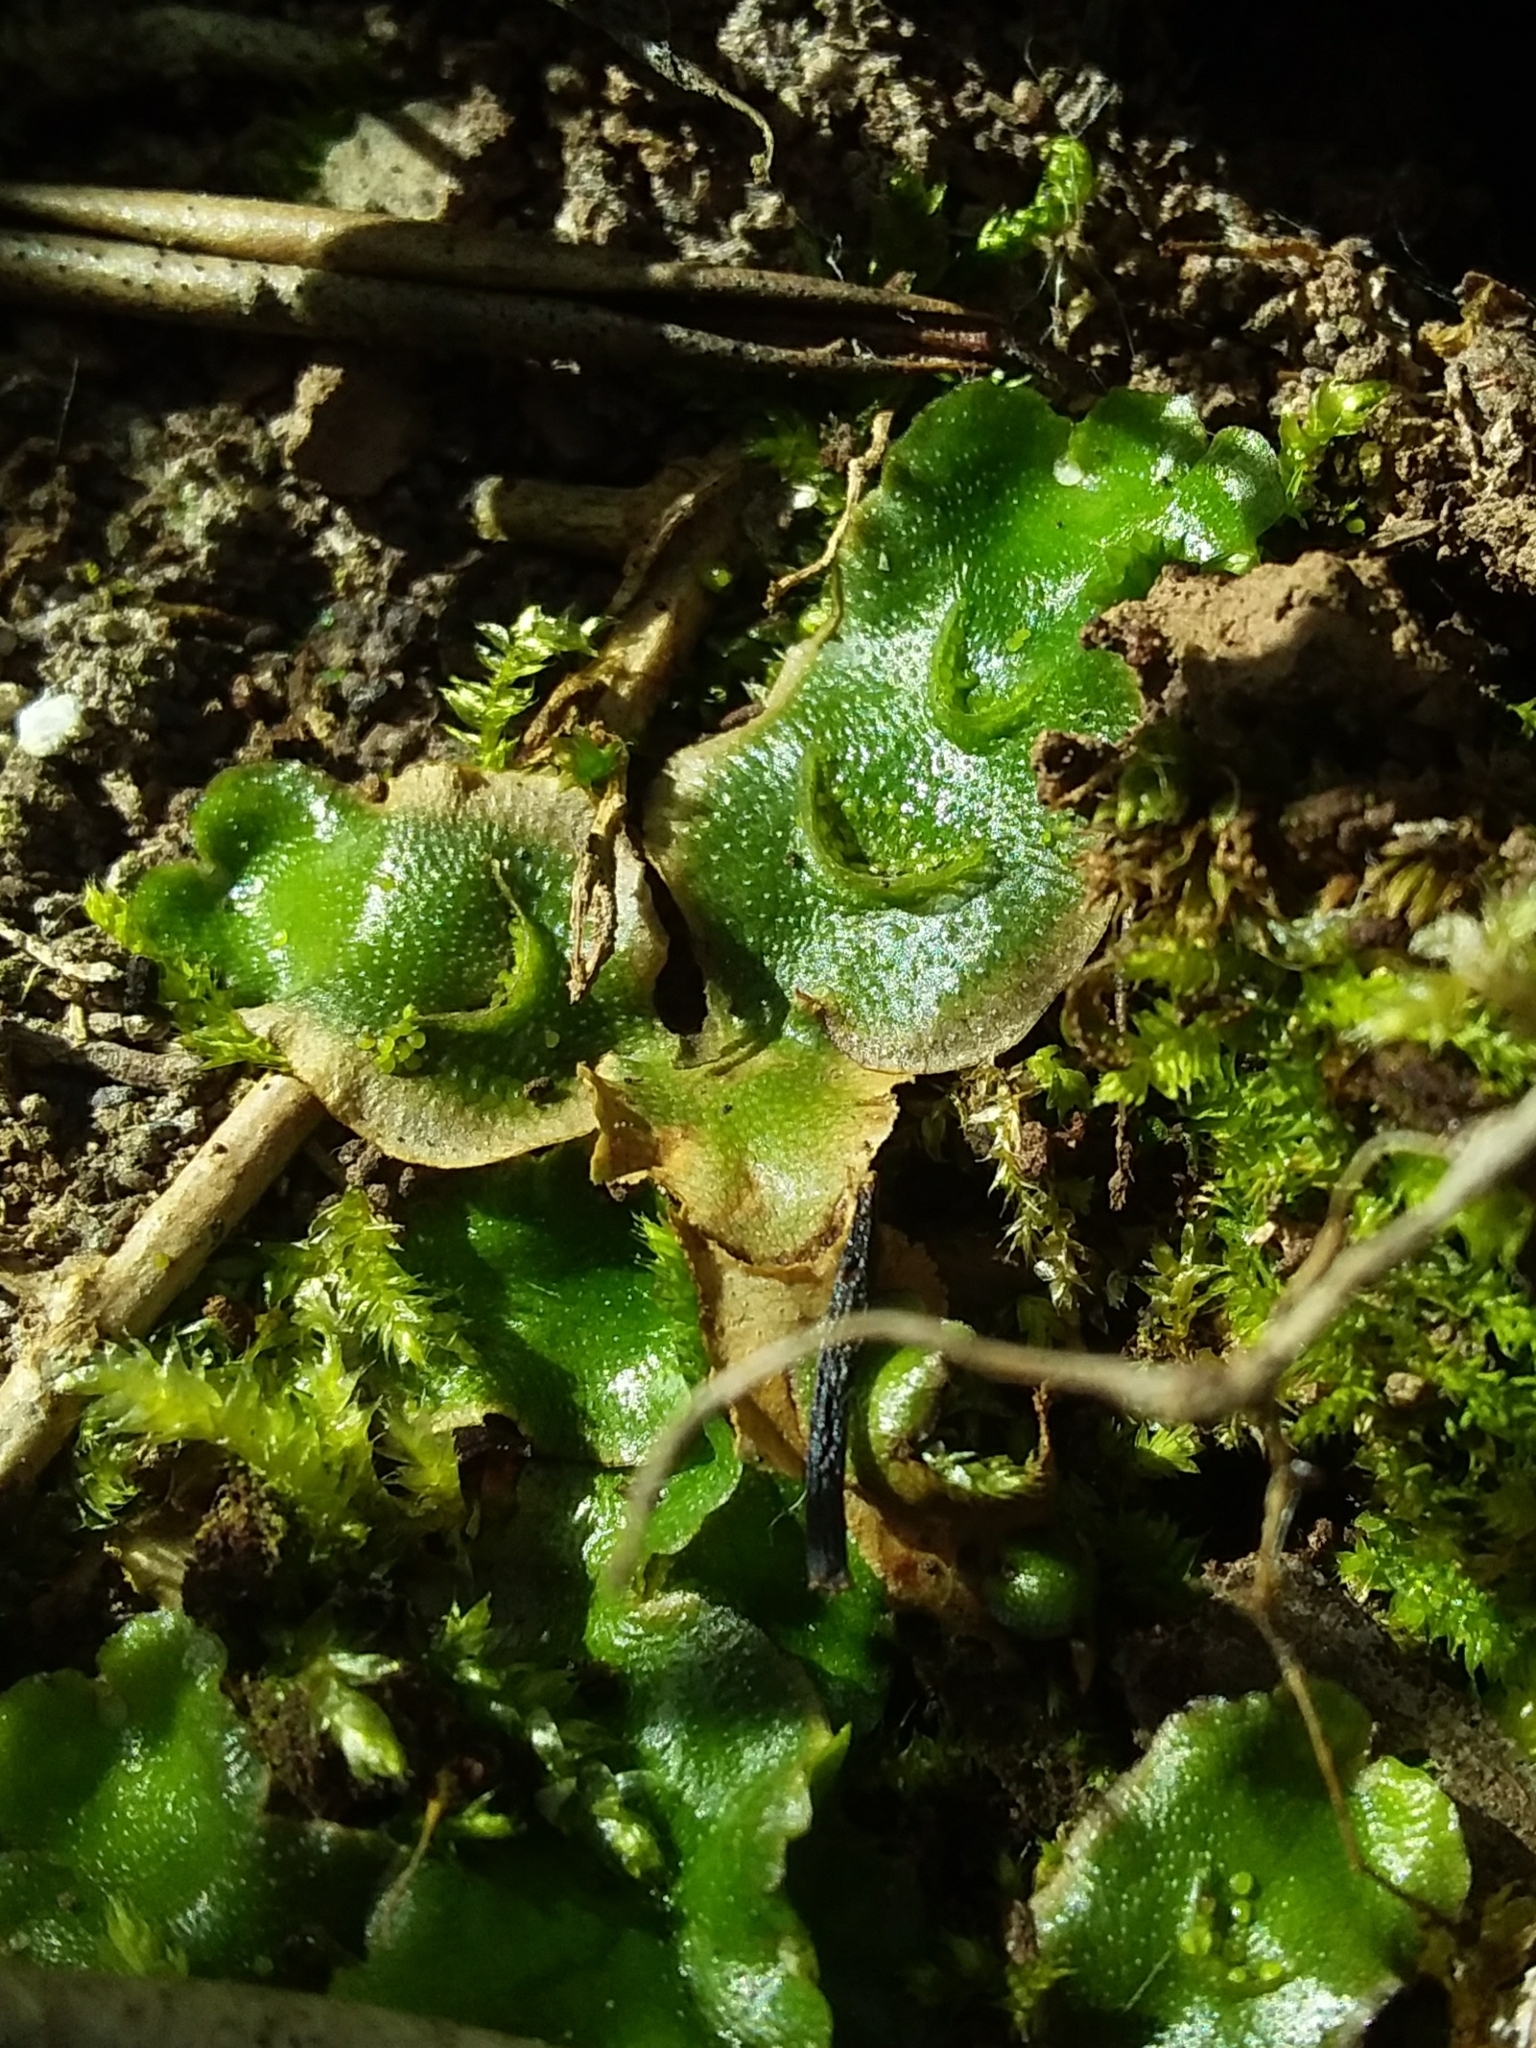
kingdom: Plantae
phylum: Marchantiophyta
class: Marchantiopsida
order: Lunulariales
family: Lunulariaceae
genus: Lunularia
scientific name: Lunularia cruciata
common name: Crescent-cup liverwort
